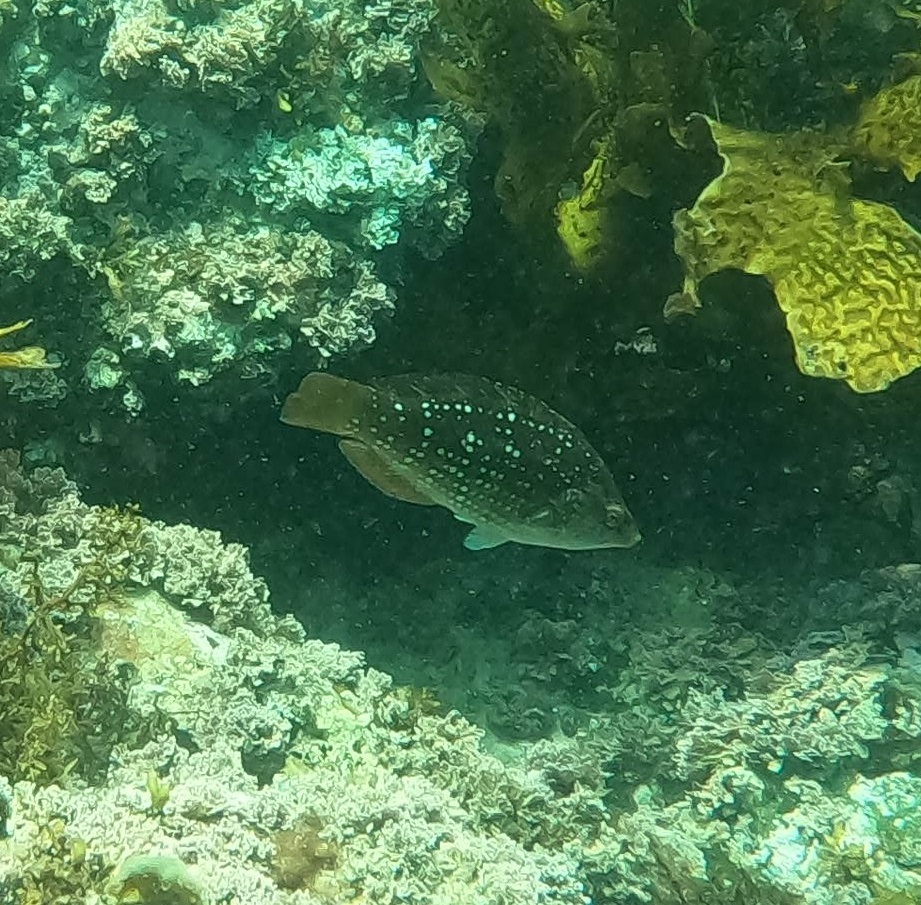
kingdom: Animalia
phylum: Chordata
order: Perciformes
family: Labridae
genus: Notolabrus
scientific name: Notolabrus gymnogenis
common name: Crimson banded wrasse
